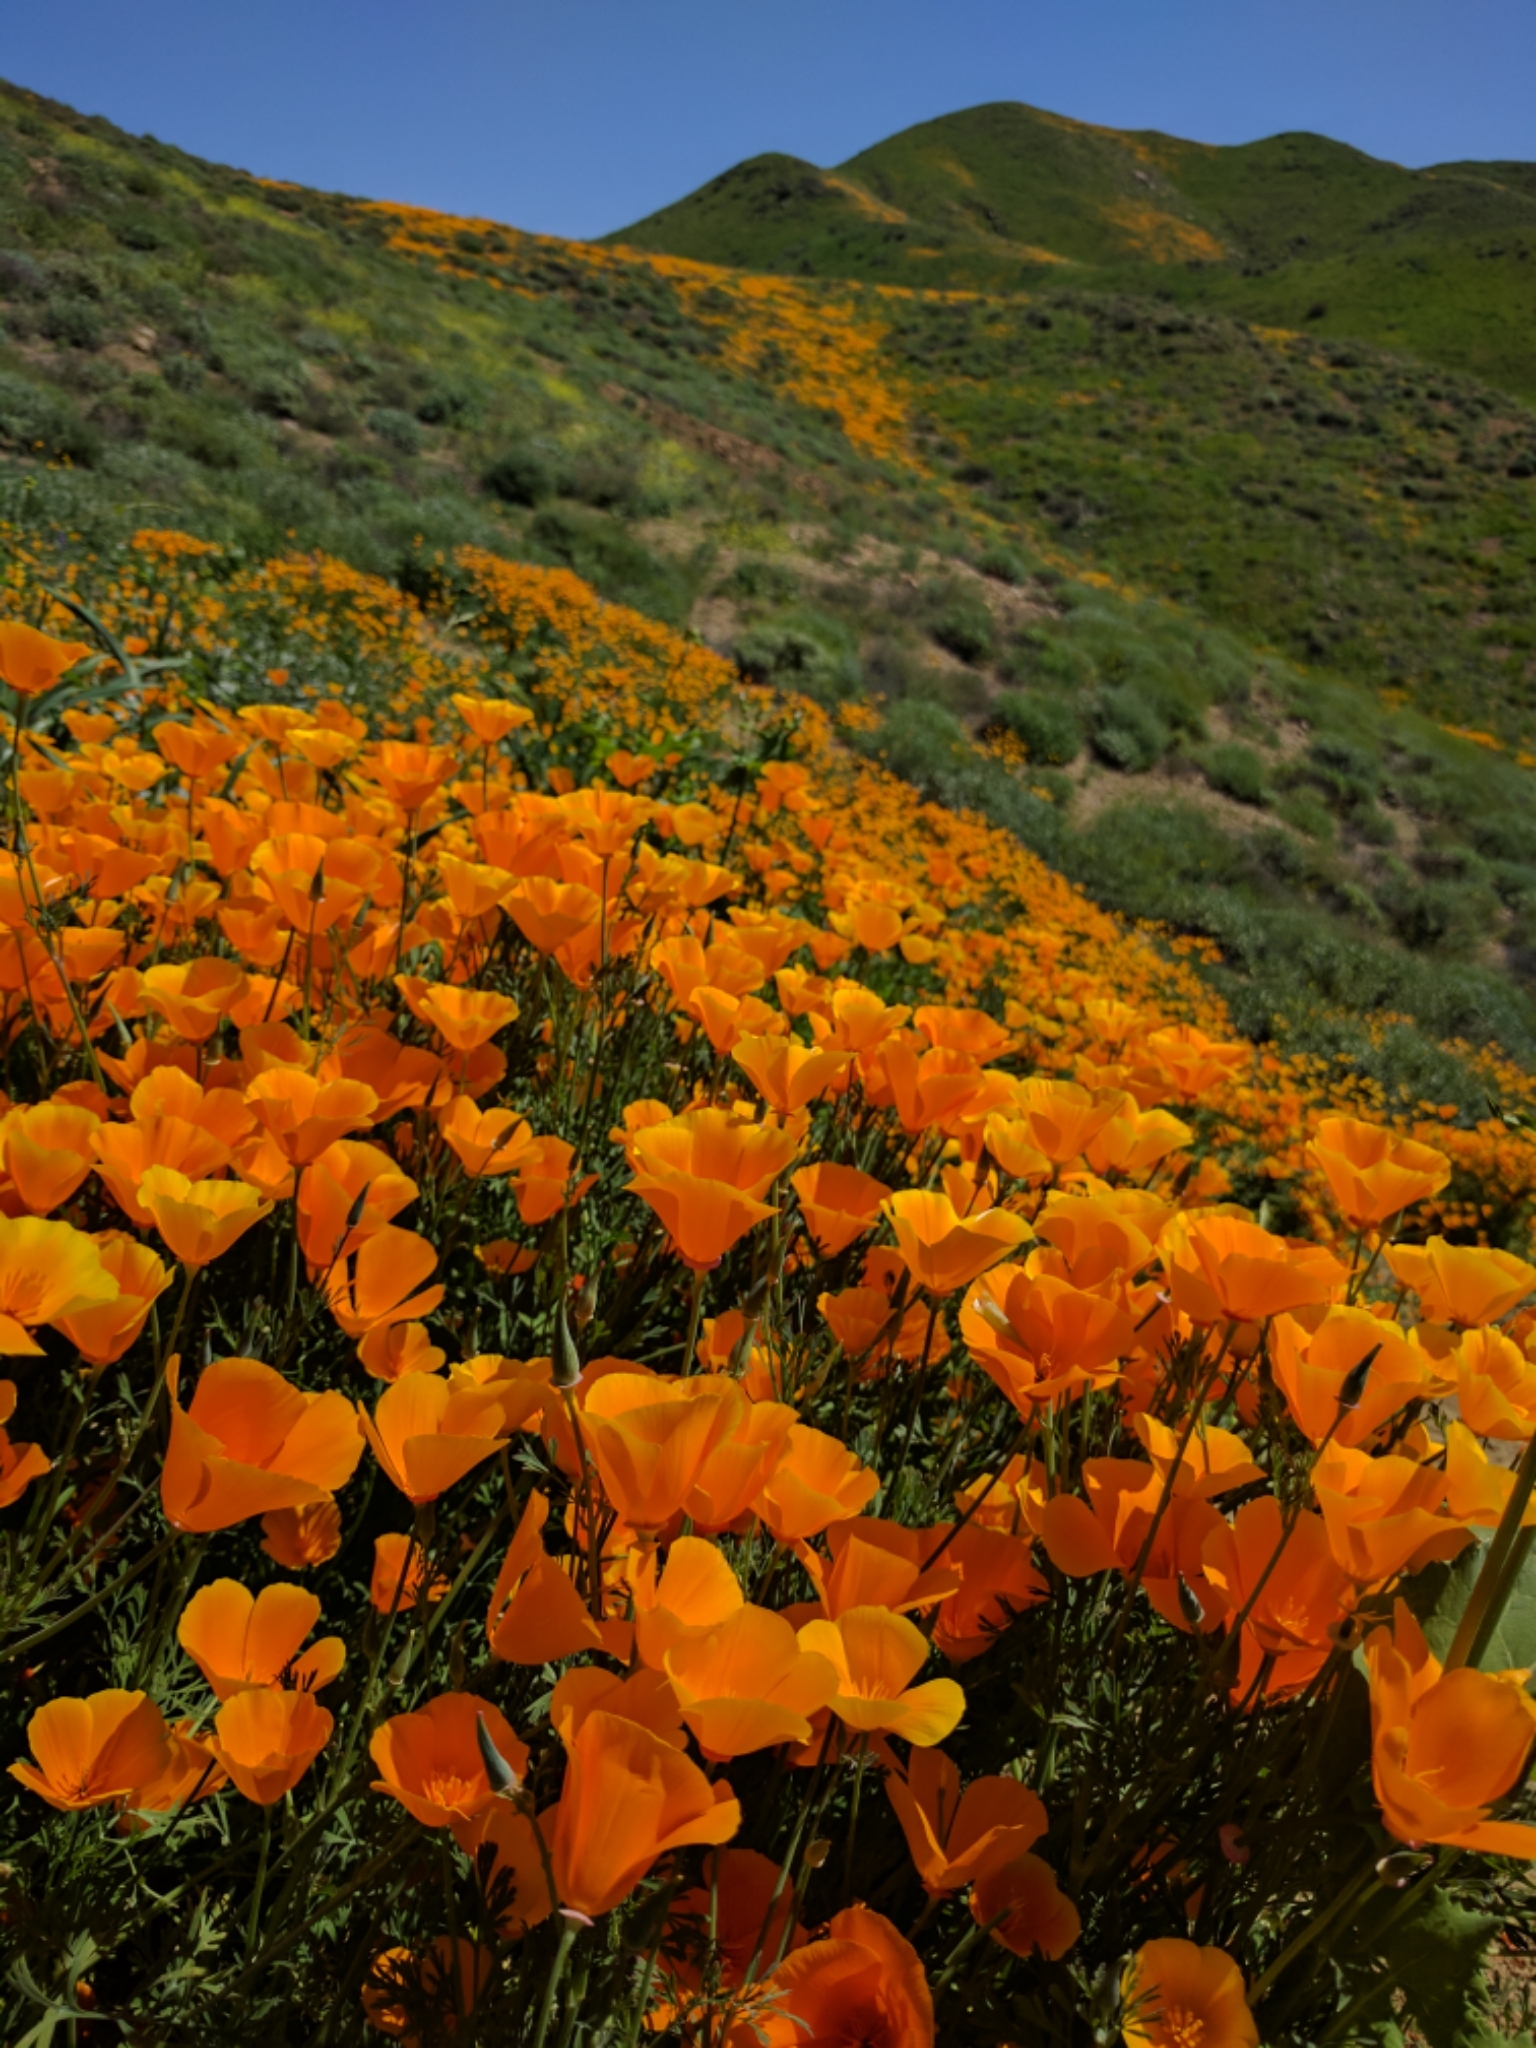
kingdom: Plantae
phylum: Tracheophyta
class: Magnoliopsida
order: Ranunculales
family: Papaveraceae
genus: Eschscholzia
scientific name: Eschscholzia californica
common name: California poppy
